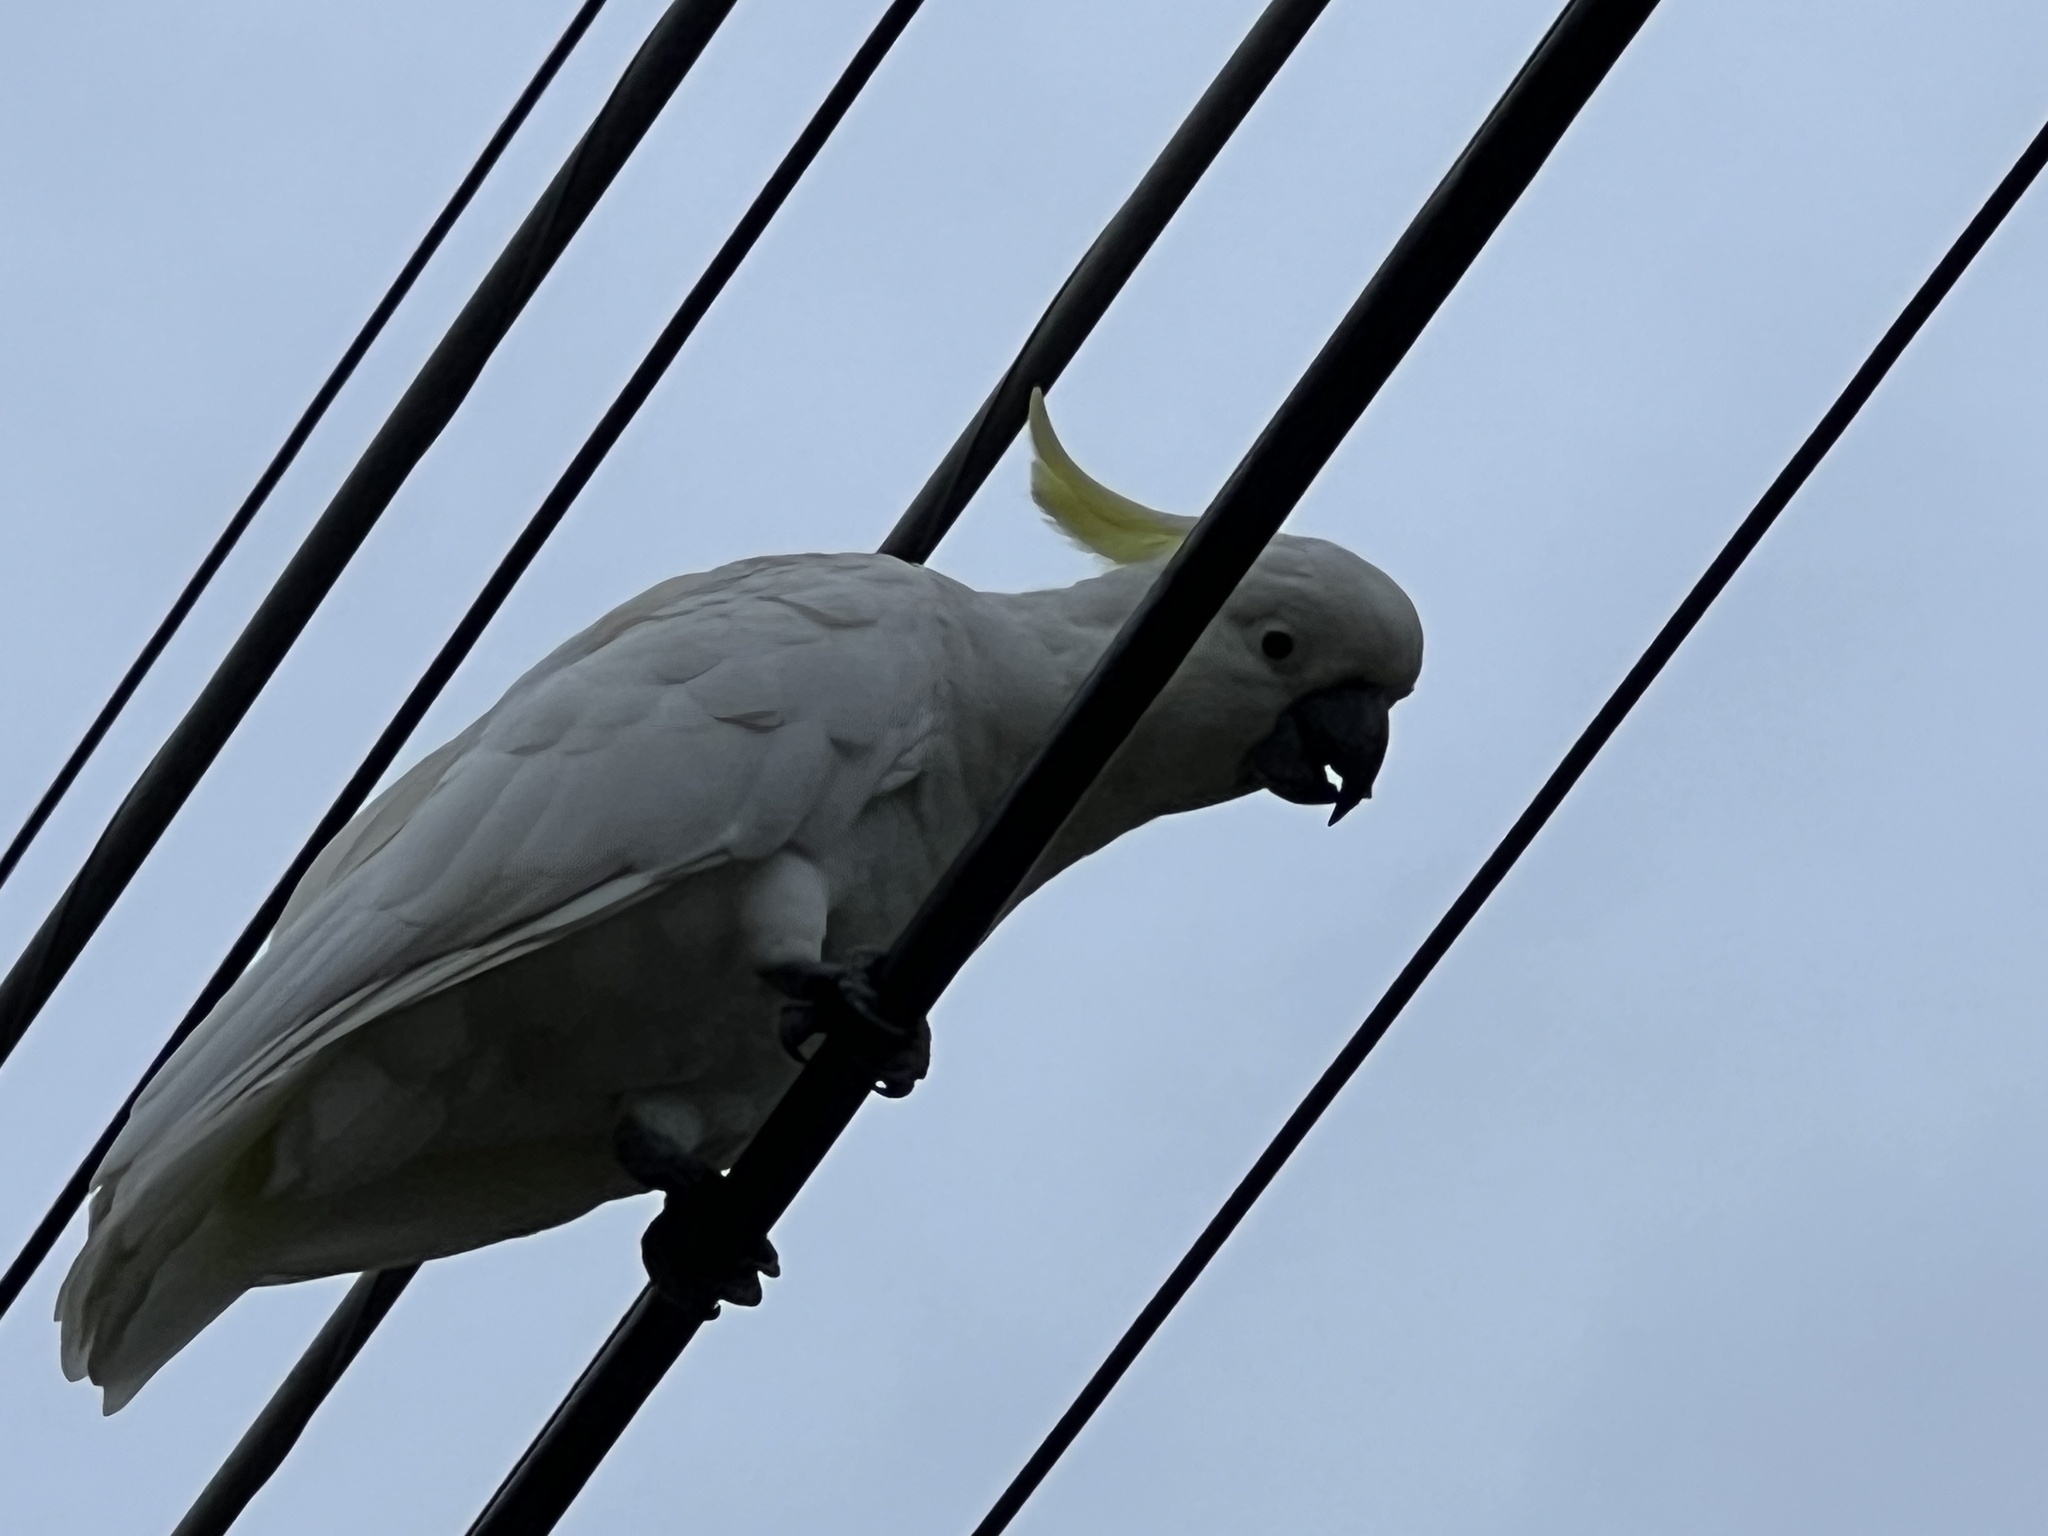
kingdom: Animalia
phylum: Chordata
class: Aves
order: Psittaciformes
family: Psittacidae
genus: Cacatua
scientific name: Cacatua galerita
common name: Sulphur-crested cockatoo
